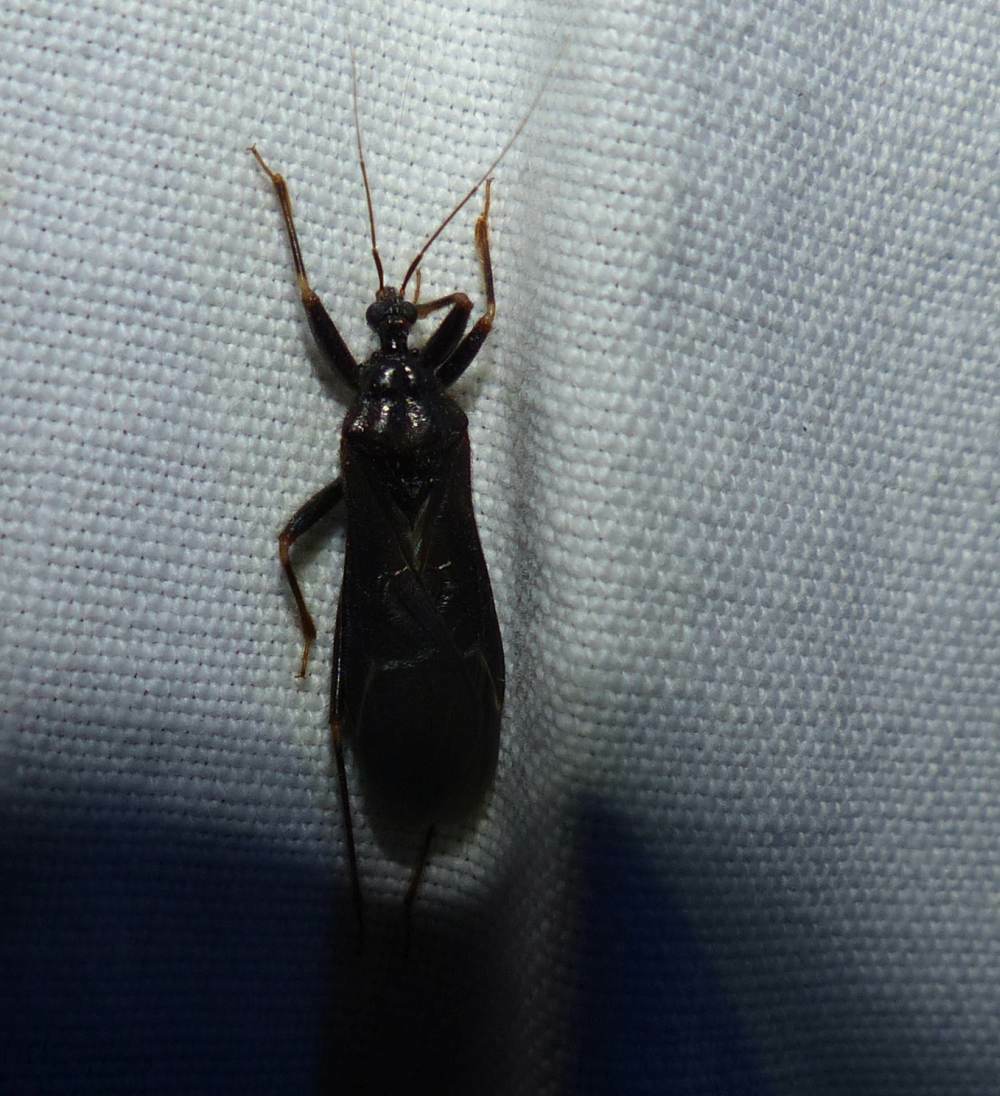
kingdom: Animalia
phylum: Arthropoda
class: Insecta
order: Hemiptera
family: Reduviidae
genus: Reduvius
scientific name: Reduvius personatus
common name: Masked hunter
